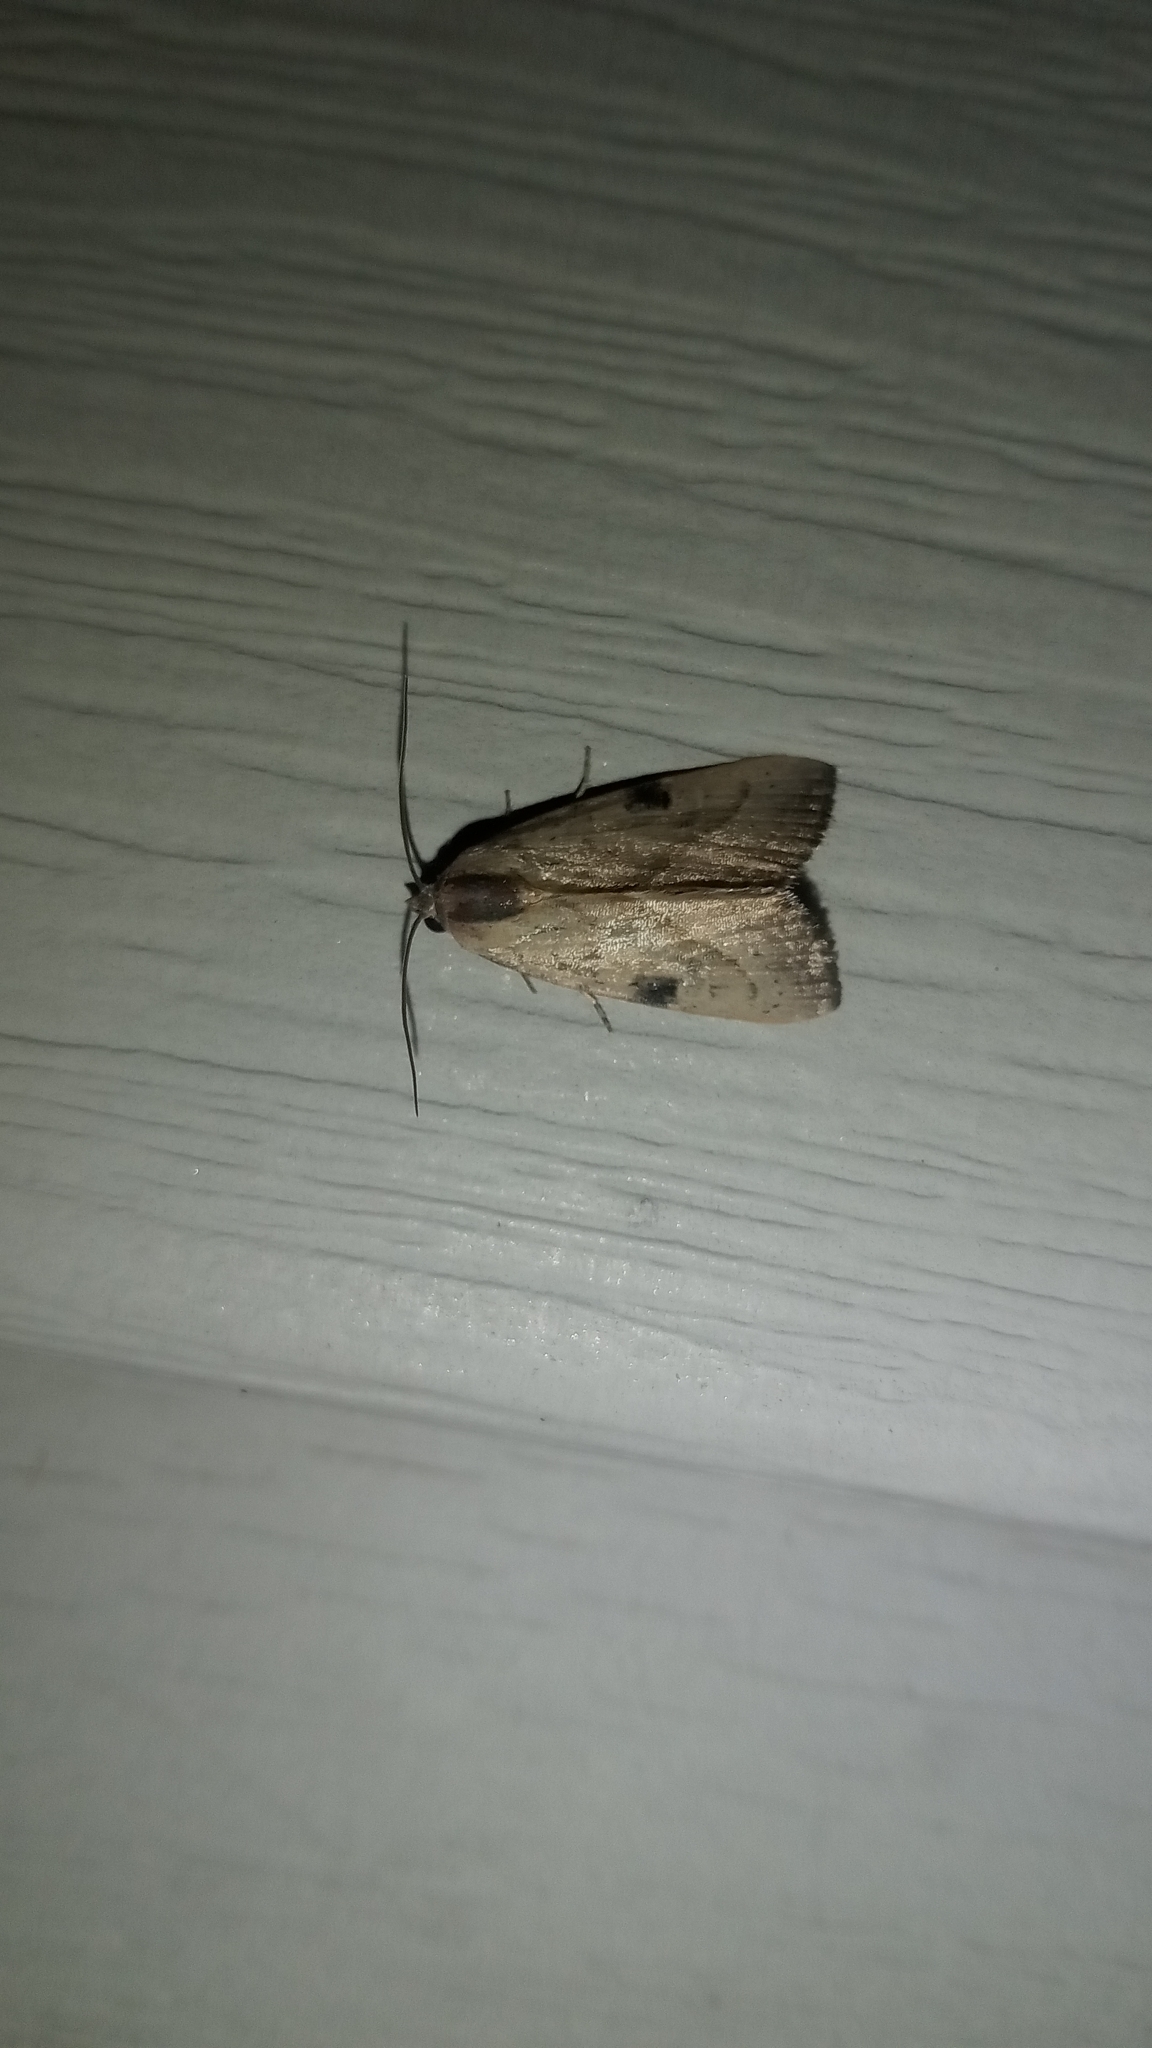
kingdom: Animalia
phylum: Arthropoda
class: Insecta
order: Lepidoptera
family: Noctuidae
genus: Galgula
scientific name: Galgula partita
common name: Wedgeling
